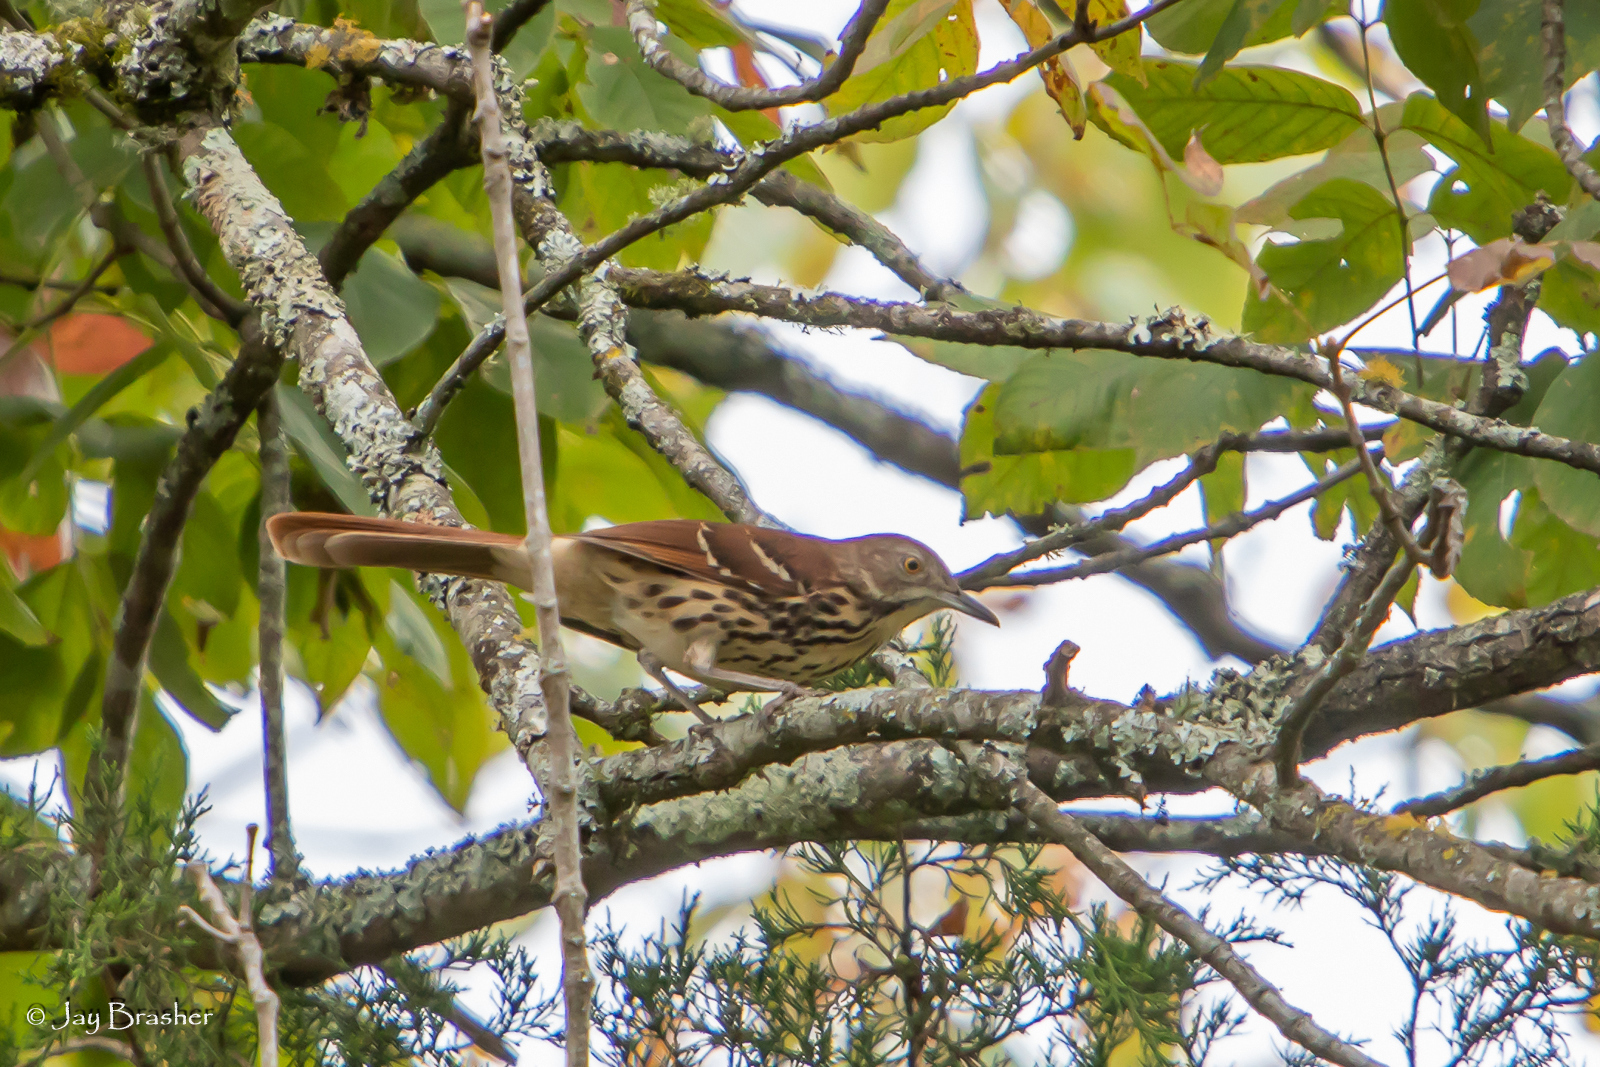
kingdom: Animalia
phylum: Chordata
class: Aves
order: Passeriformes
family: Mimidae
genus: Toxostoma
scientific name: Toxostoma rufum
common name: Brown thrasher
